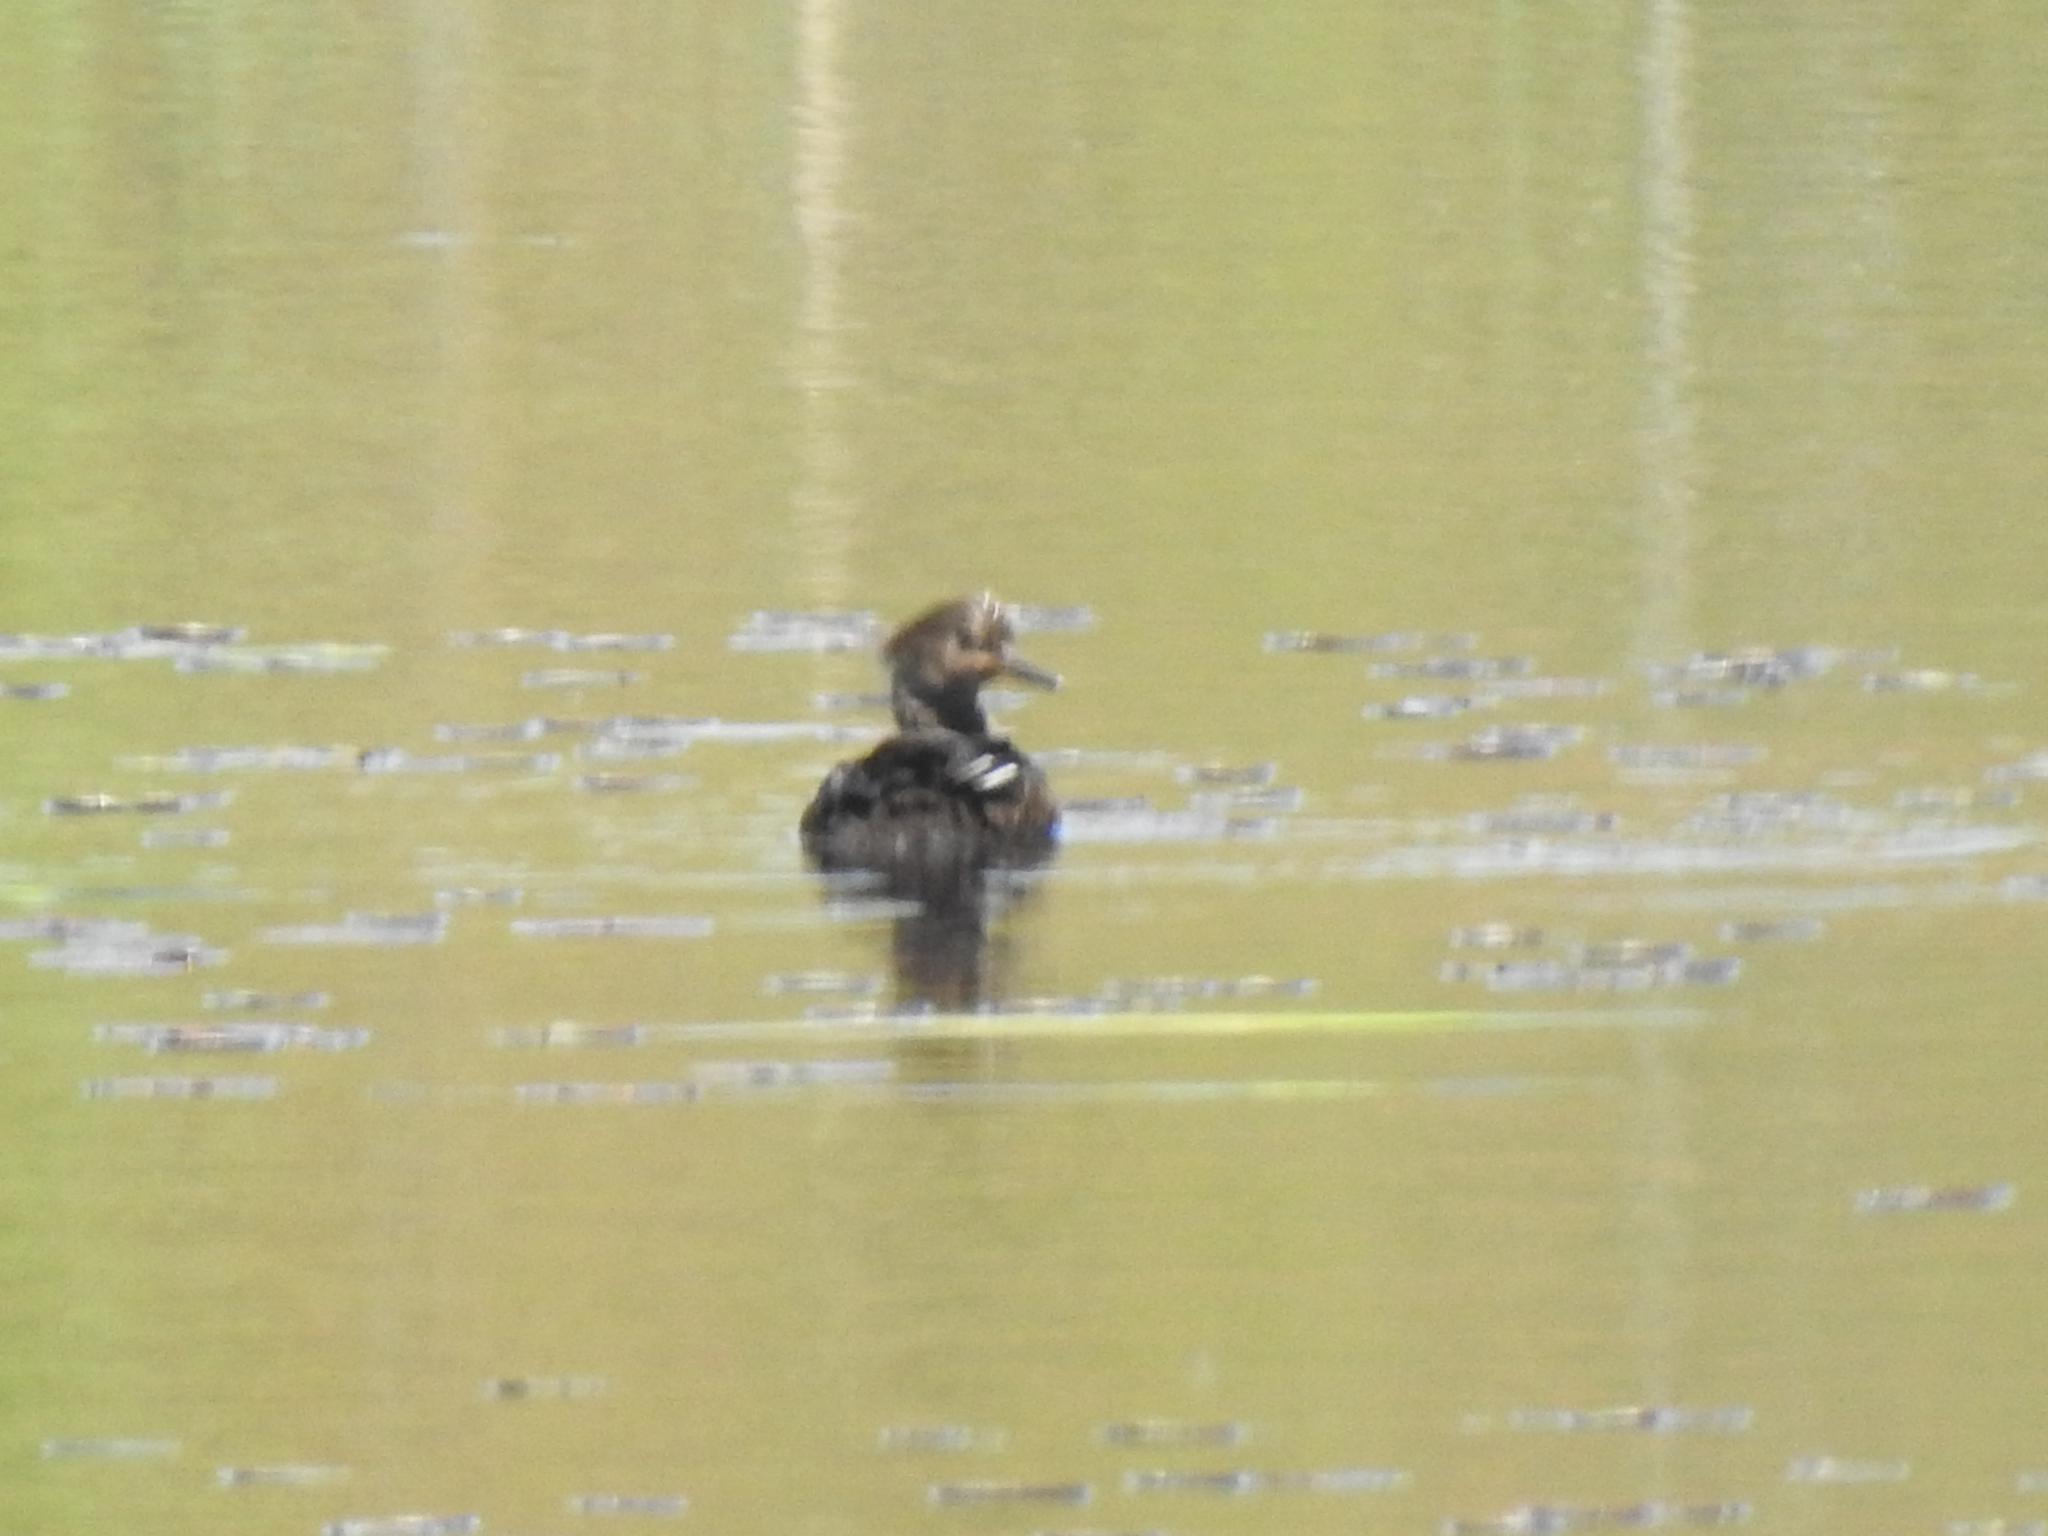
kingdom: Animalia
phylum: Chordata
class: Aves
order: Anseriformes
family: Anatidae
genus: Lophodytes
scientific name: Lophodytes cucullatus
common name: Hooded merganser
